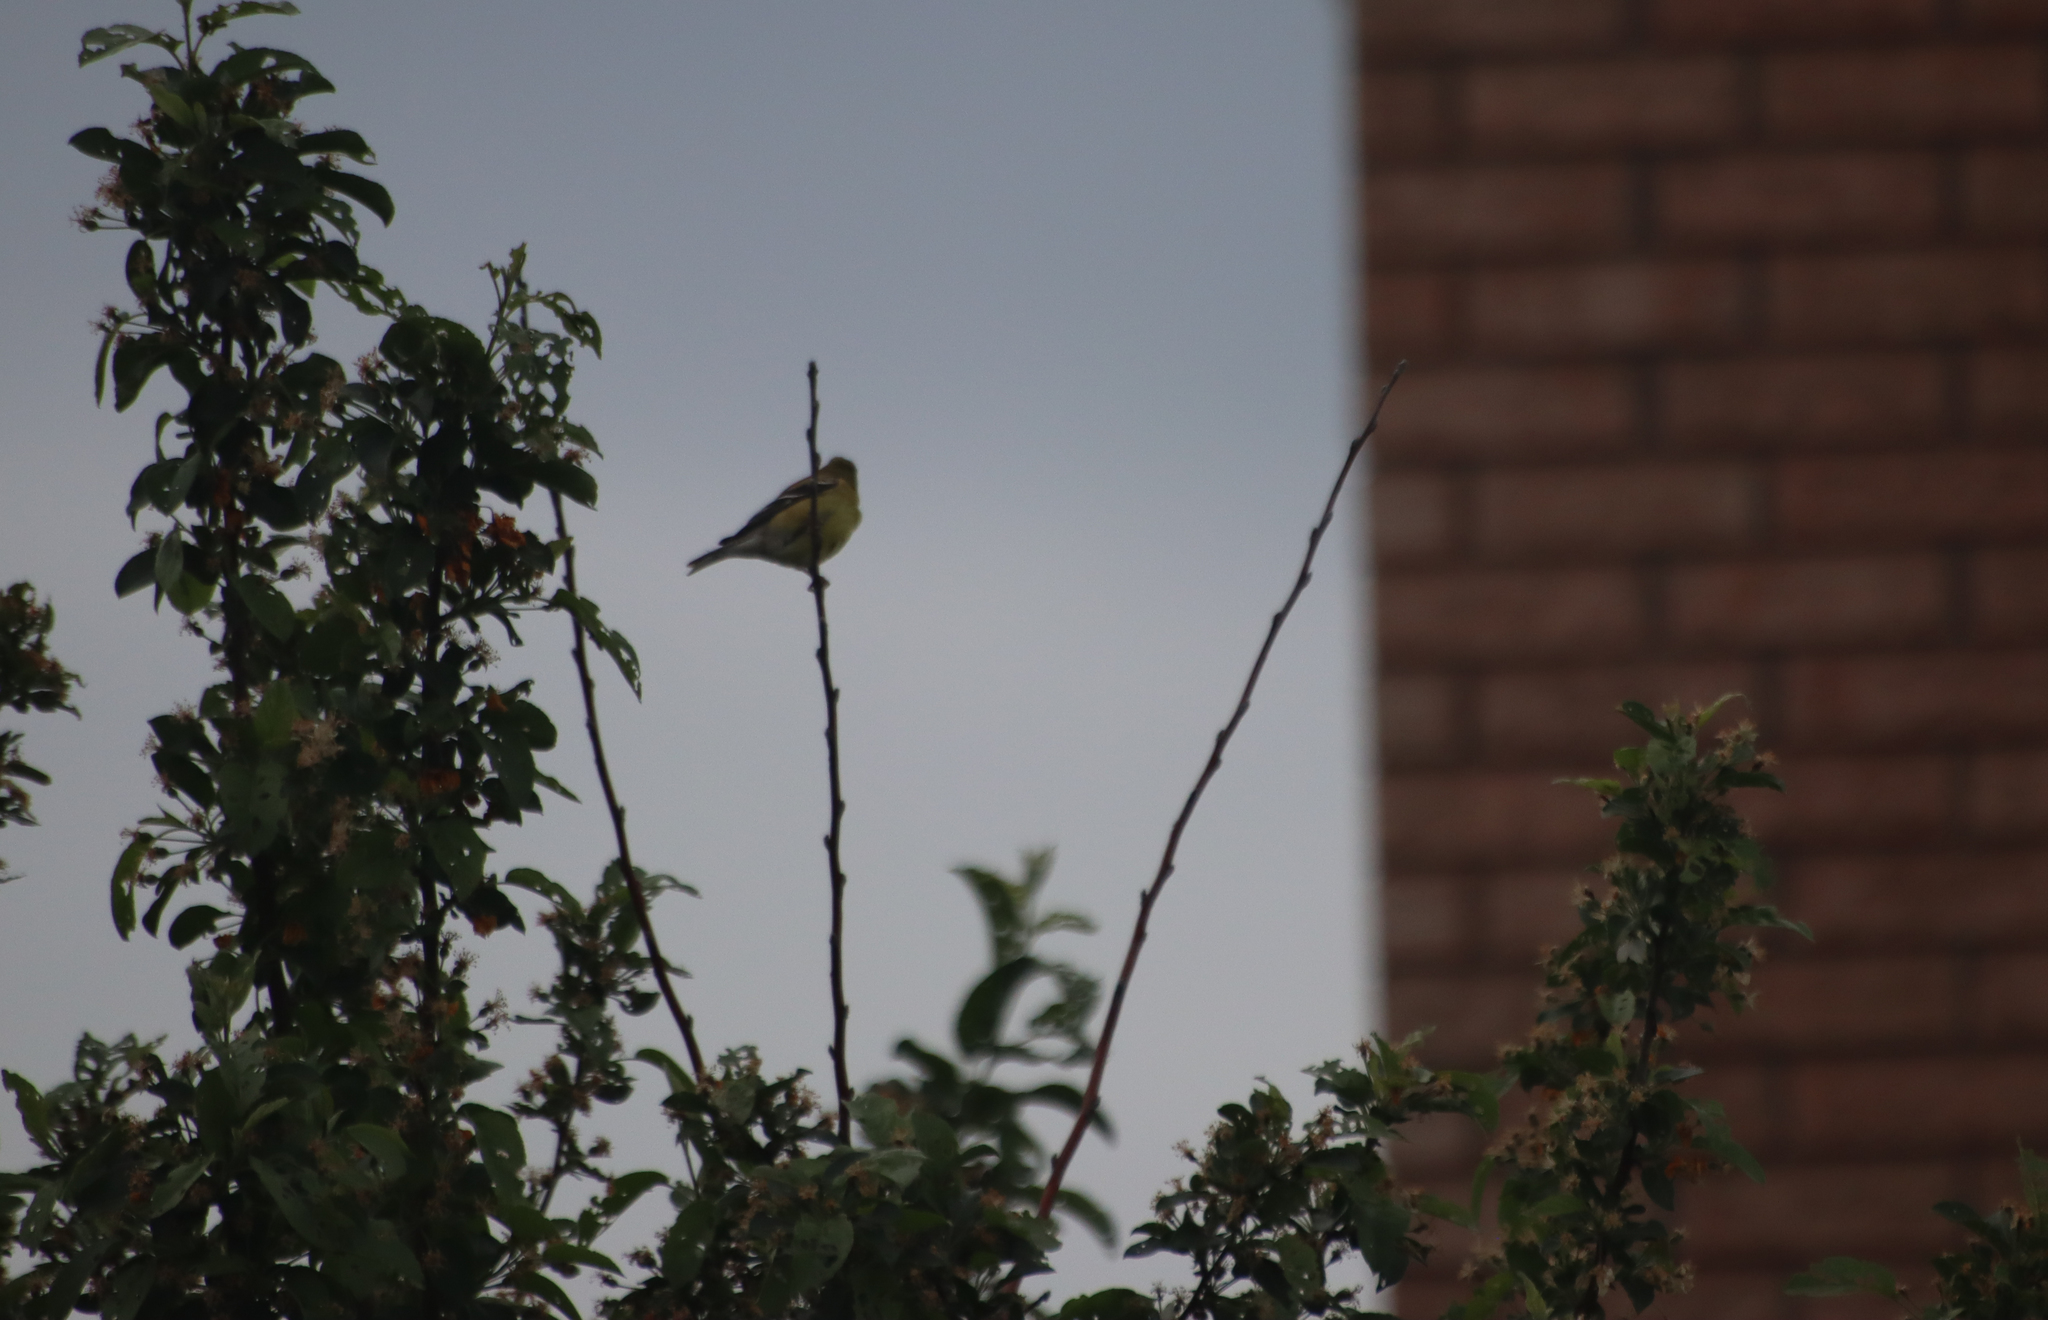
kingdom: Animalia
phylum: Chordata
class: Aves
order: Passeriformes
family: Fringillidae
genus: Spinus
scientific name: Spinus tristis
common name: American goldfinch
